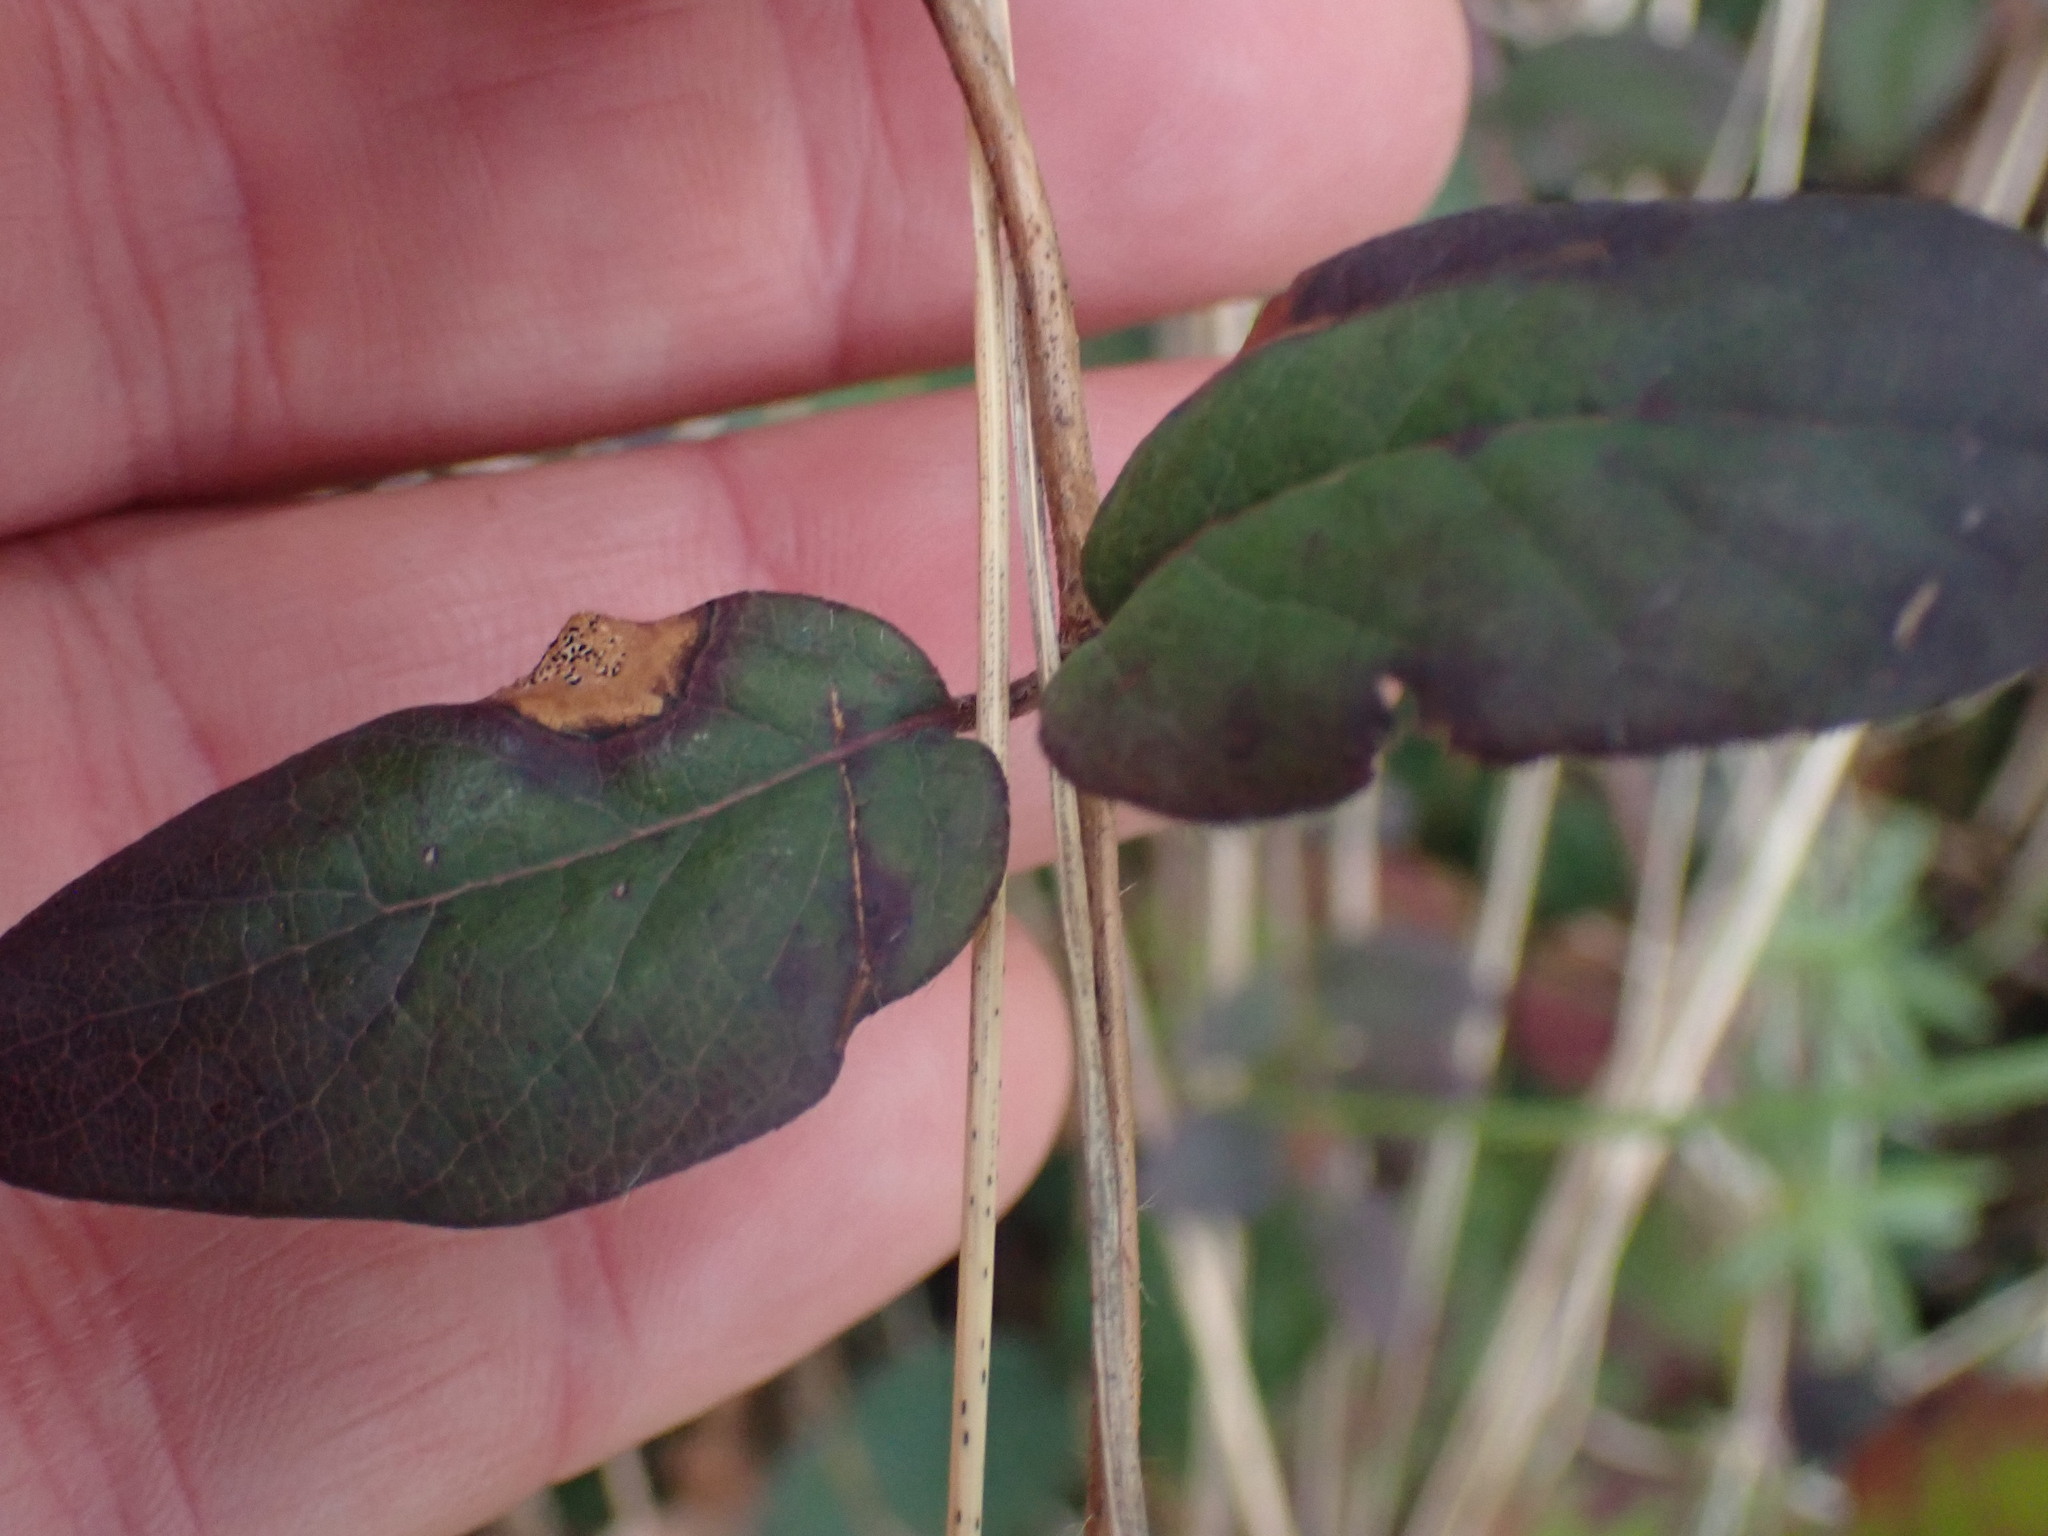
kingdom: Plantae
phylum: Tracheophyta
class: Magnoliopsida
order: Dipsacales
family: Caprifoliaceae
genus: Lonicera
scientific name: Lonicera hispidula
